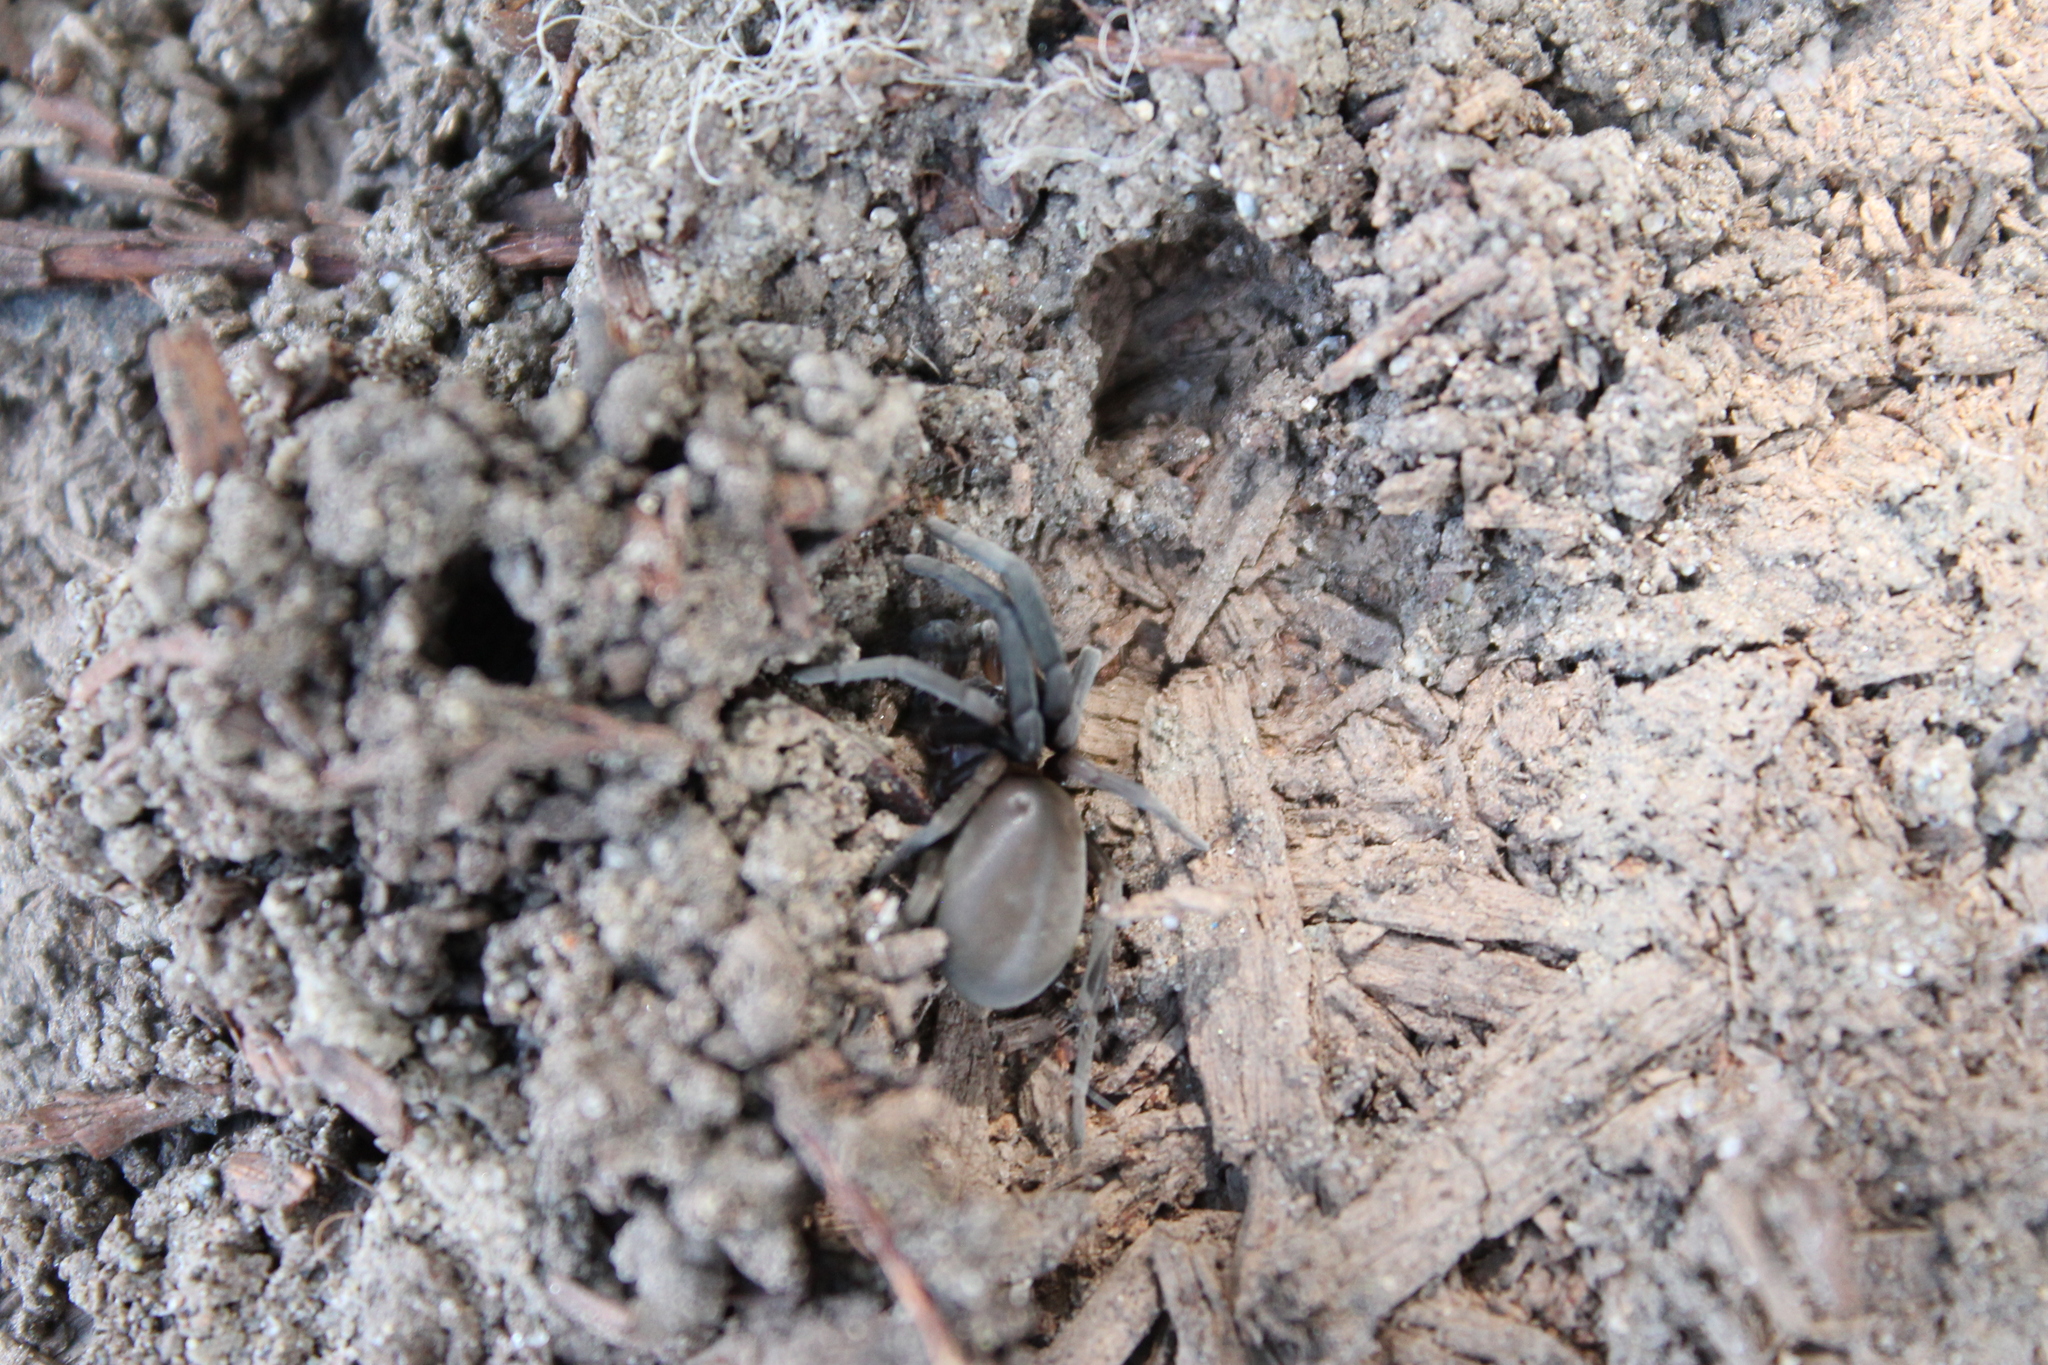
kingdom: Animalia
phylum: Arthropoda
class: Arachnida
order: Araneae
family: Filistatidae
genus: Kukulcania
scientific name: Kukulcania
